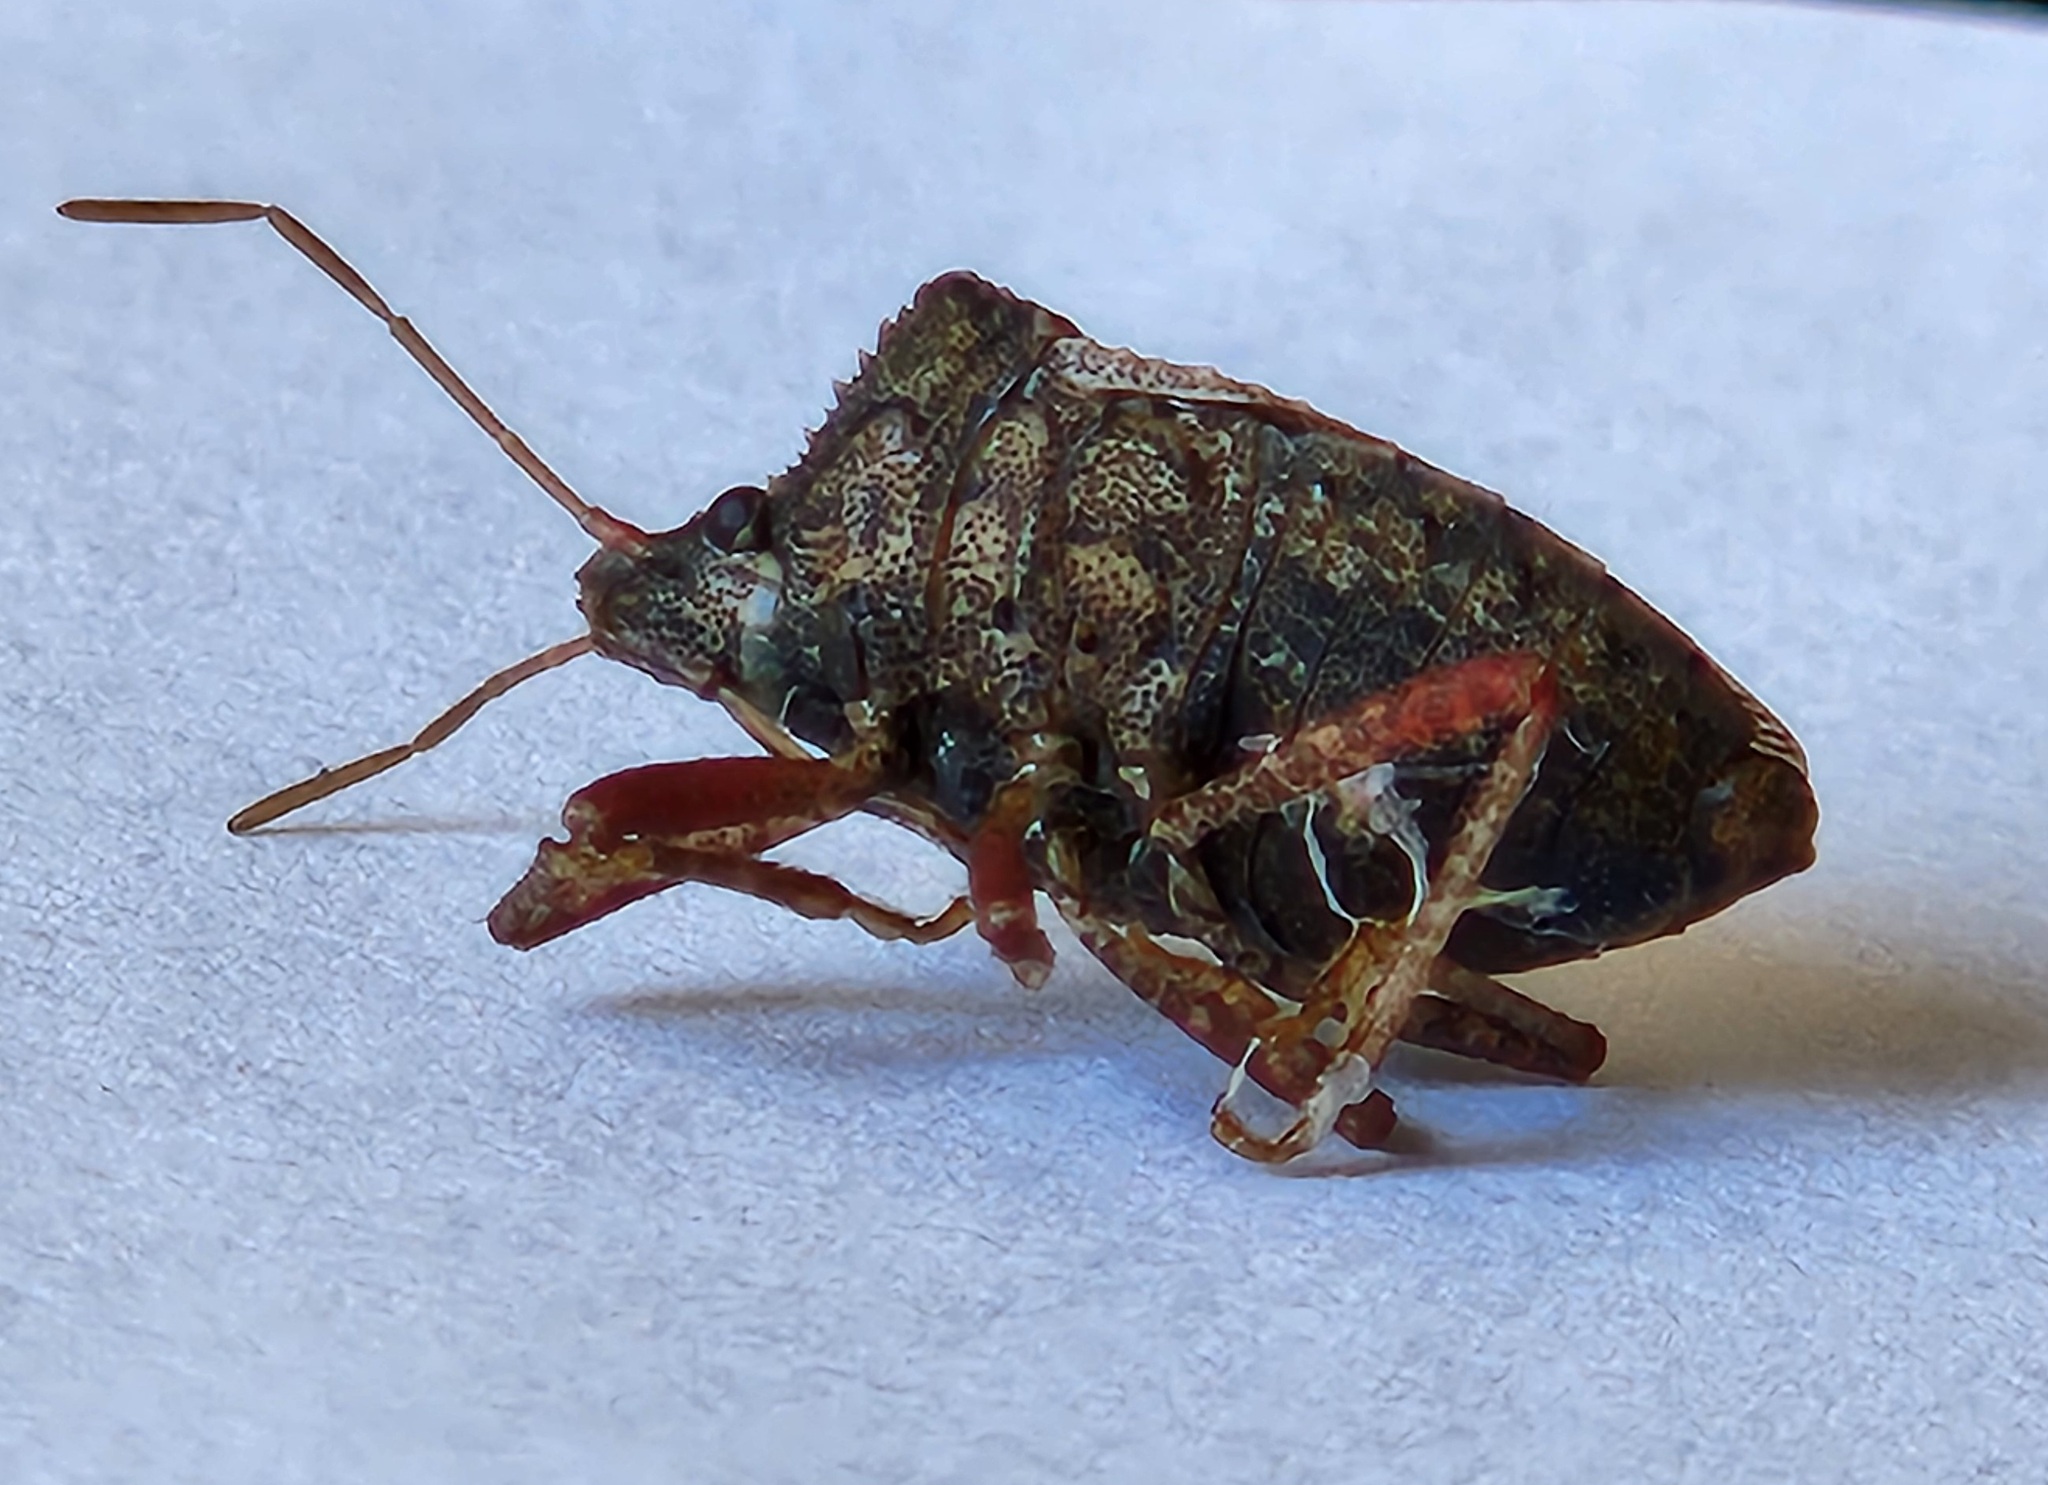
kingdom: Animalia
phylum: Arthropoda
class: Insecta
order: Hemiptera
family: Pentatomidae
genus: Picromerus
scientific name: Picromerus griseus
